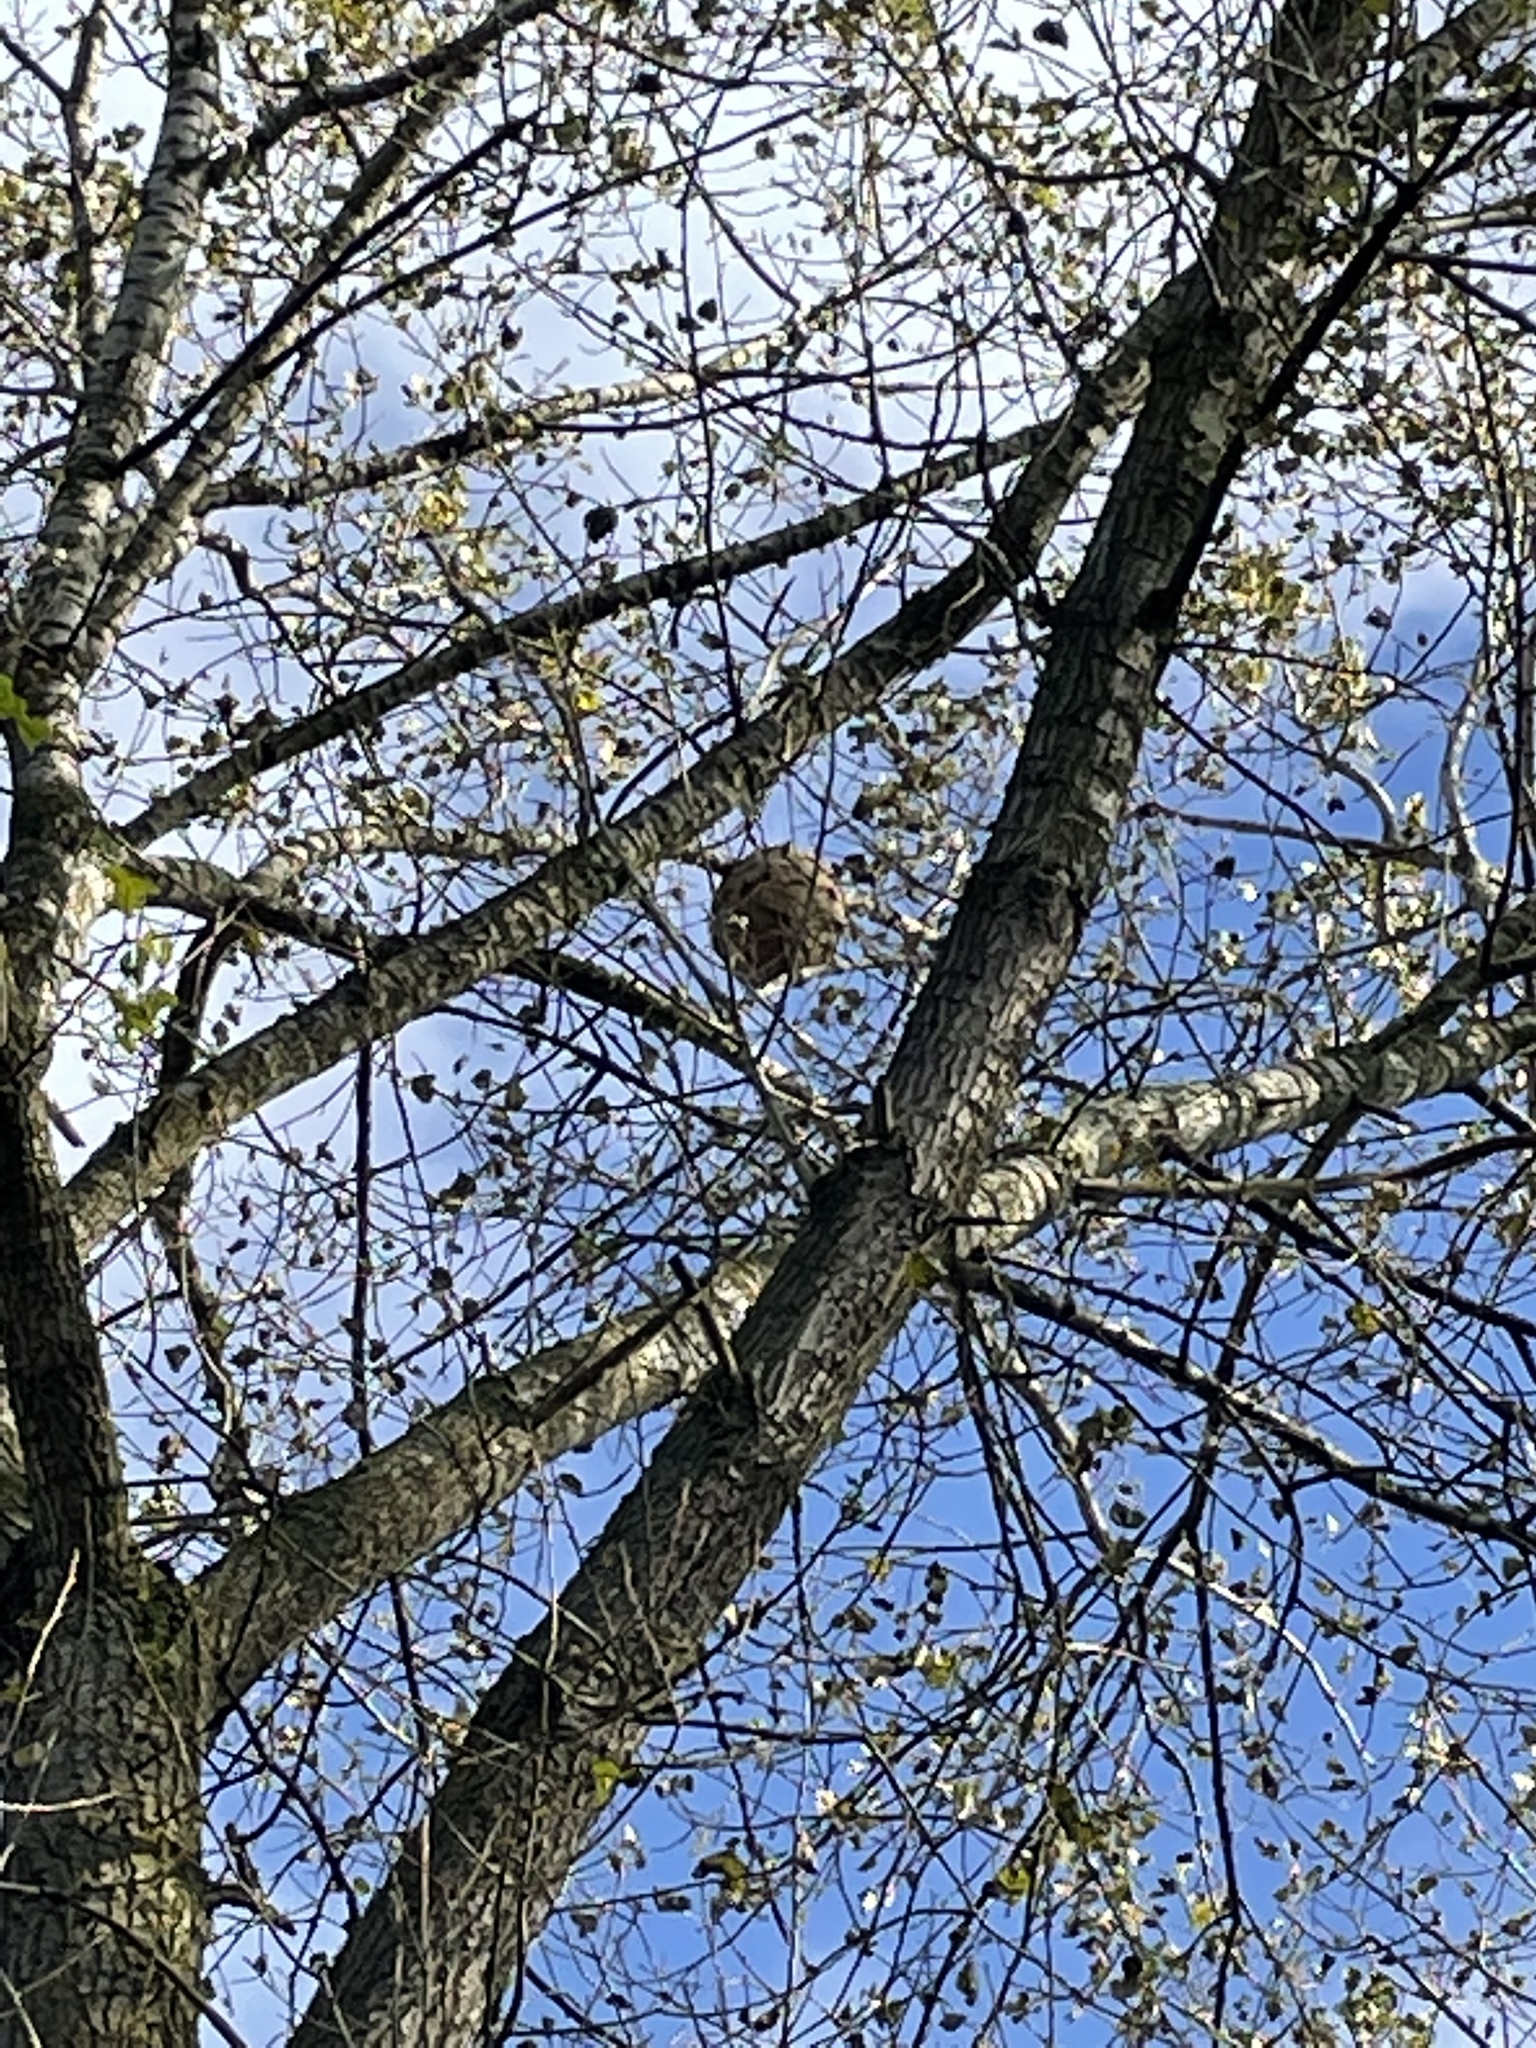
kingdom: Animalia
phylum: Arthropoda
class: Insecta
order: Hymenoptera
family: Vespidae
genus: Vespa
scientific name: Vespa velutina
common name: Asian hornet
